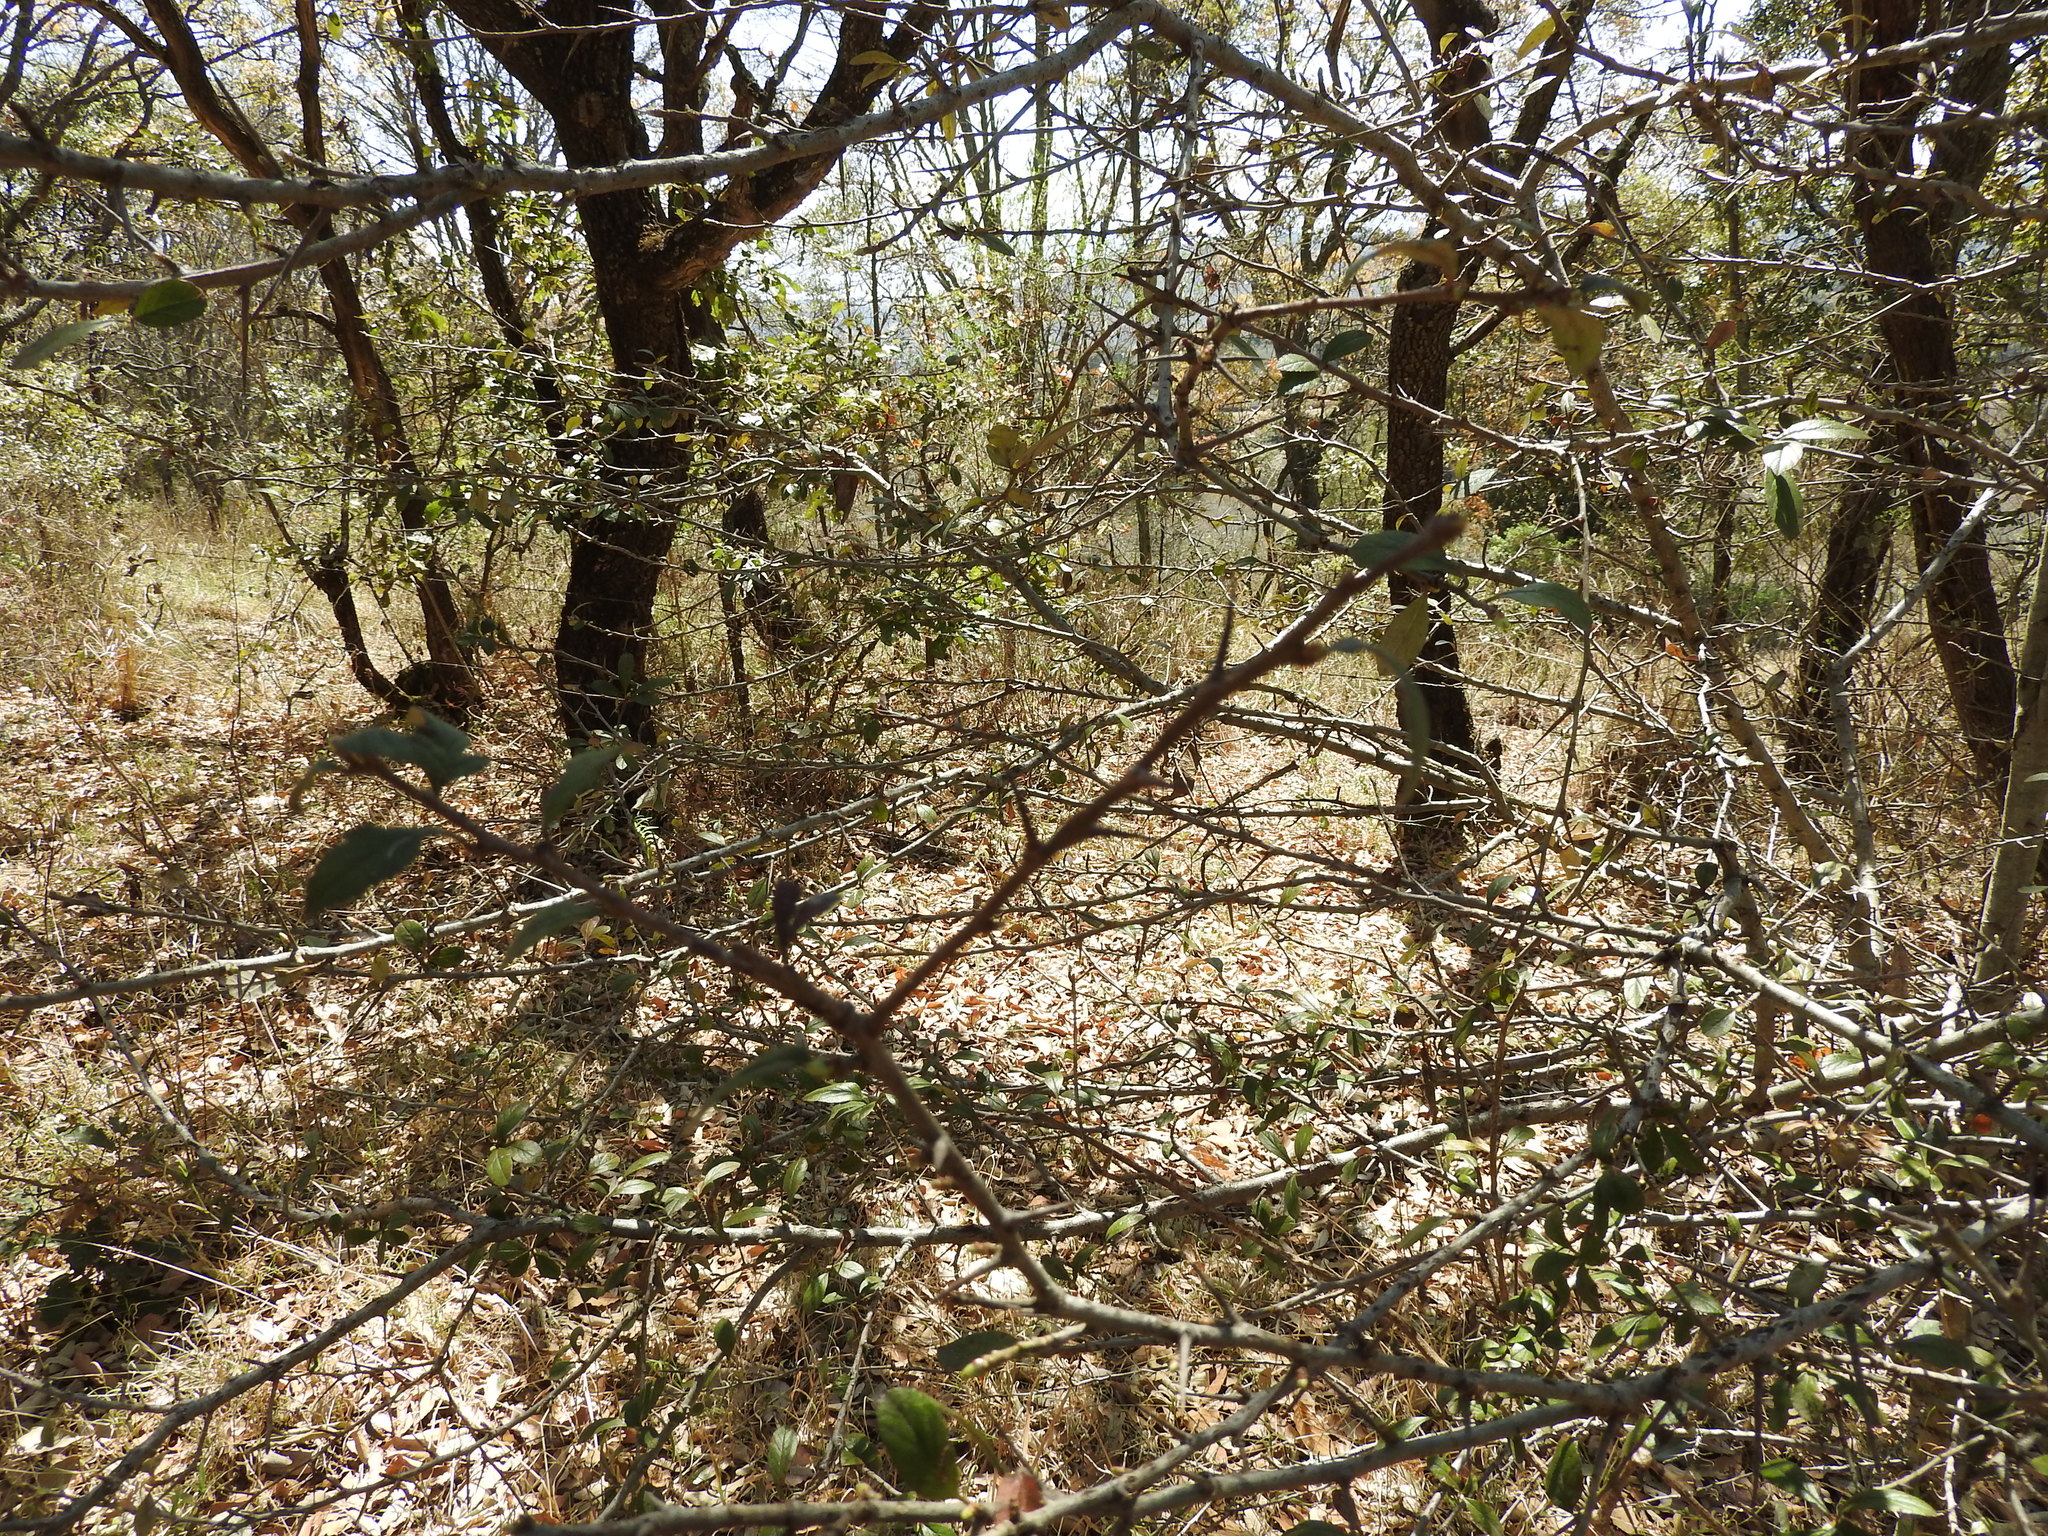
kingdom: Plantae
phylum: Tracheophyta
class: Magnoliopsida
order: Rosales
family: Rosaceae
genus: Crataegus
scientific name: Crataegus mexicana
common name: Mexican hawthorn
